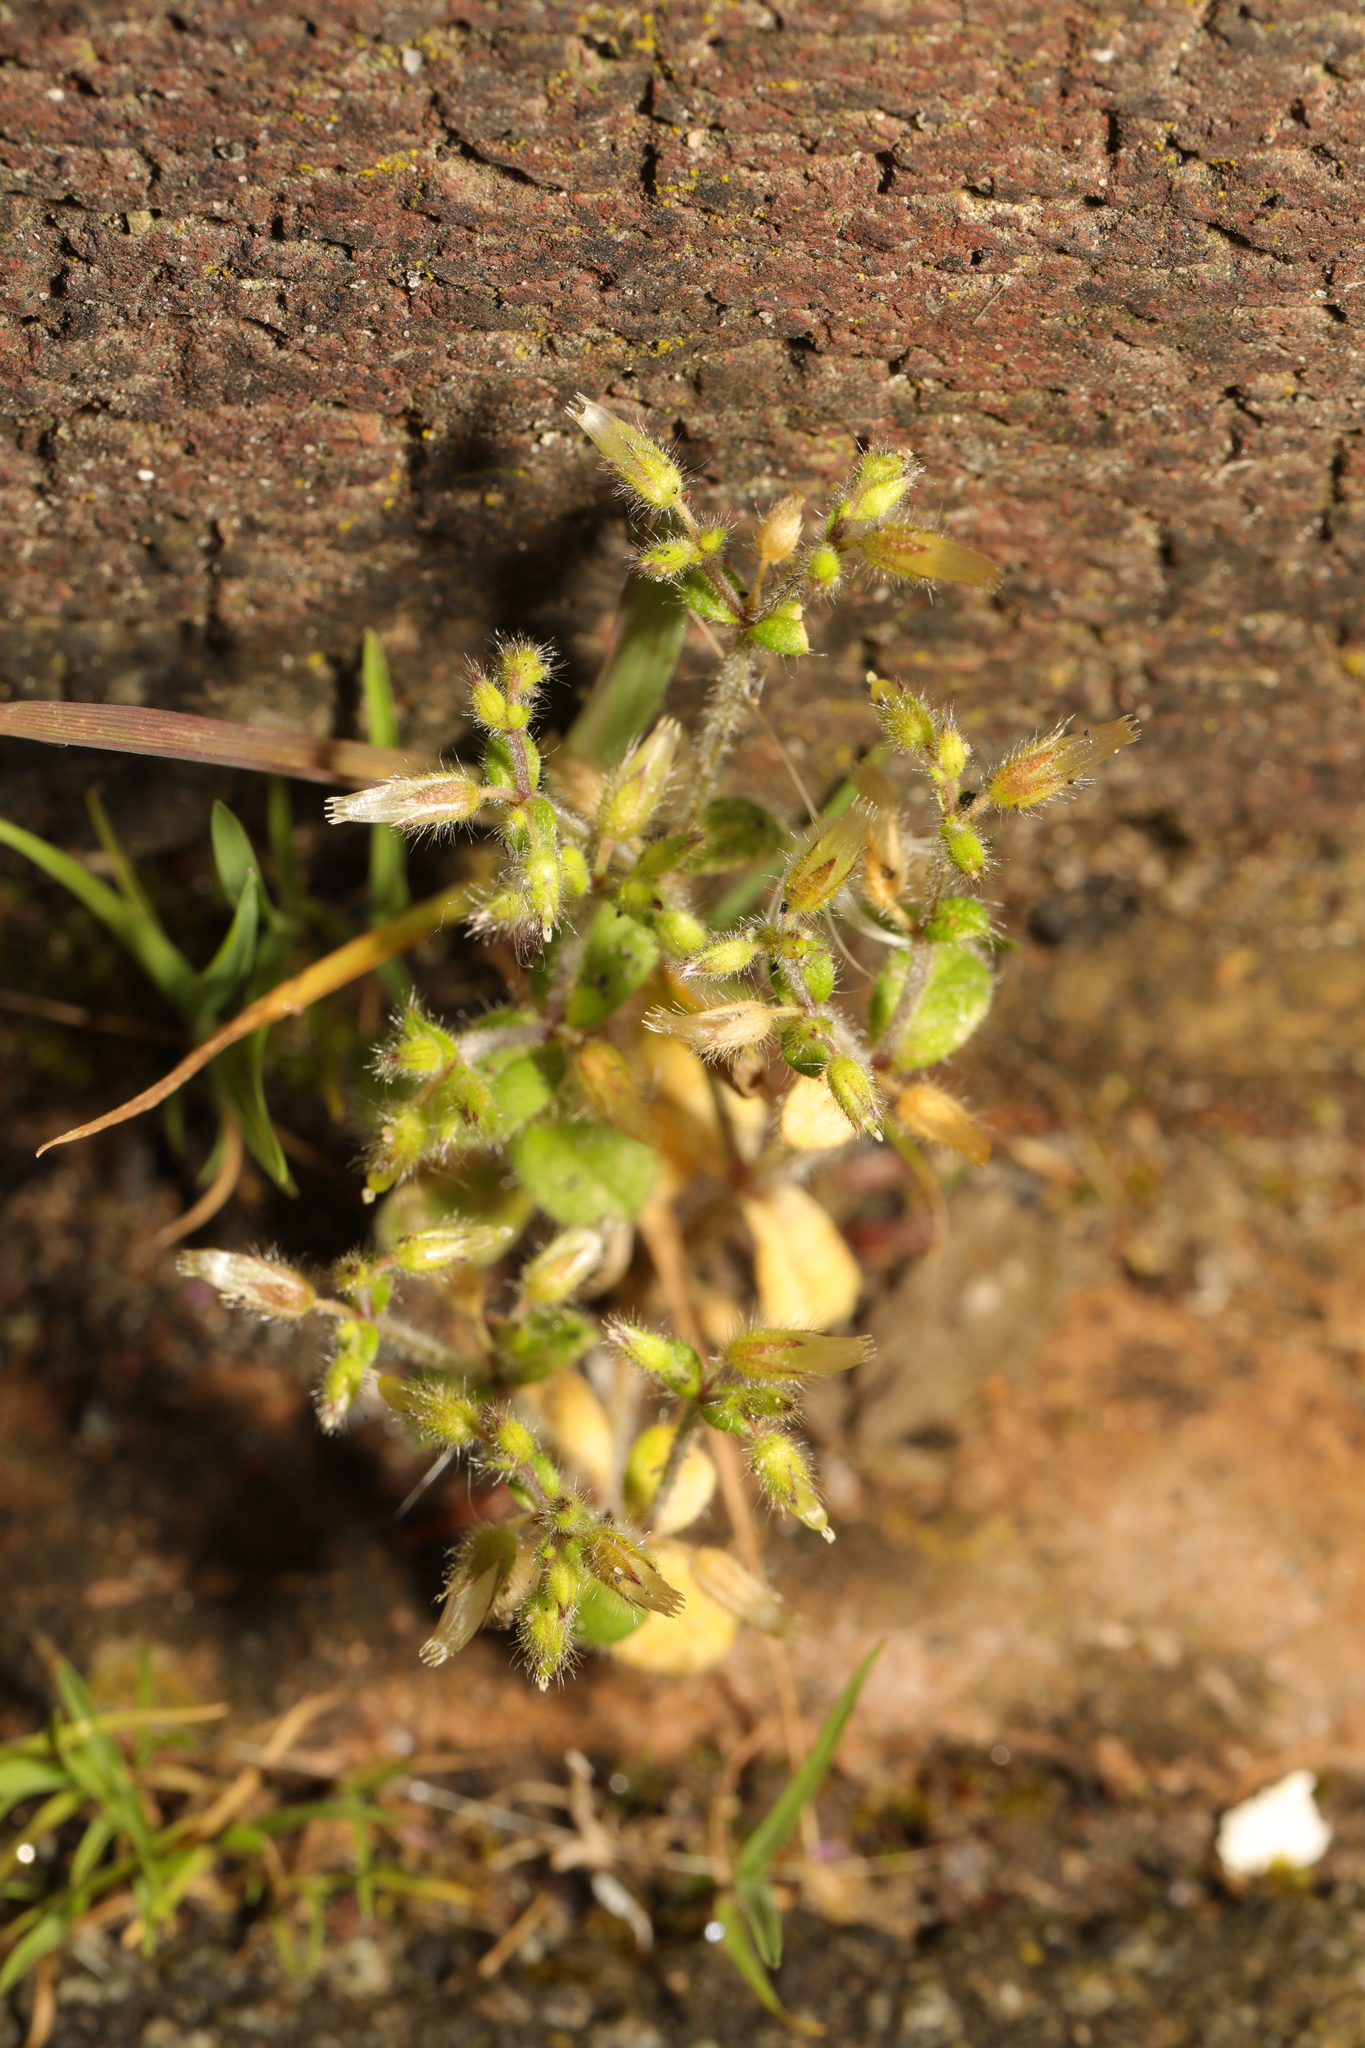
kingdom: Plantae
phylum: Tracheophyta
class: Magnoliopsida
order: Caryophyllales
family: Caryophyllaceae
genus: Cerastium
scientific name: Cerastium glomeratum
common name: Sticky chickweed
